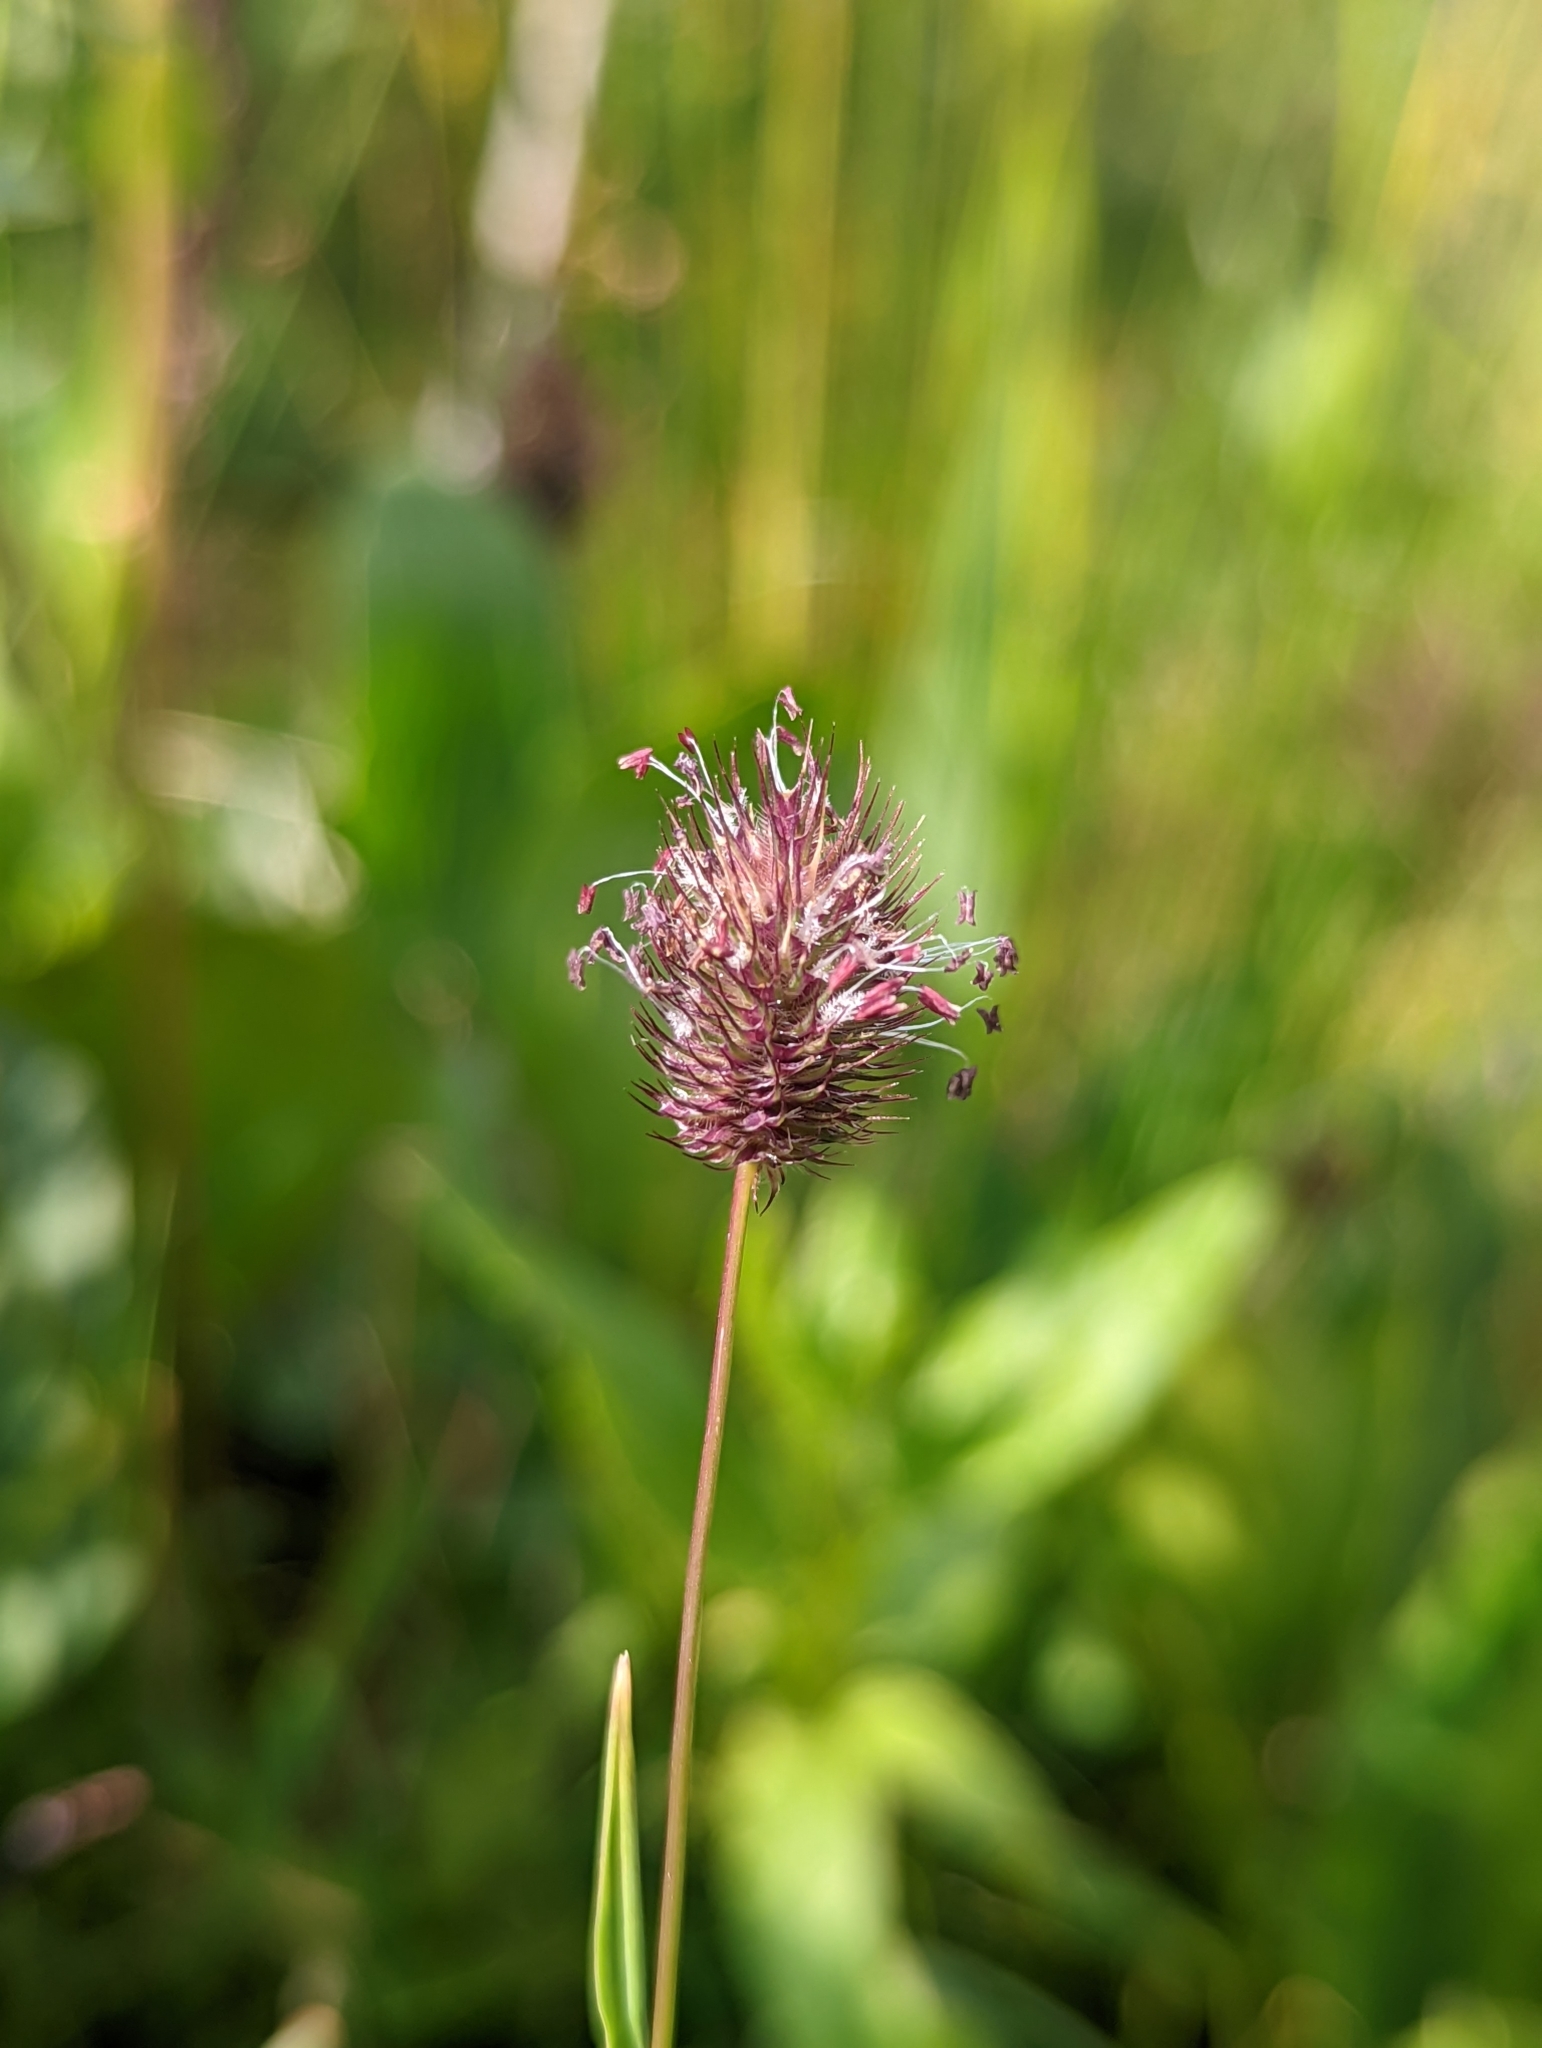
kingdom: Plantae
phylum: Tracheophyta
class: Liliopsida
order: Poales
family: Poaceae
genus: Phleum
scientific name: Phleum alpinum
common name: Alpine cat's-tail
